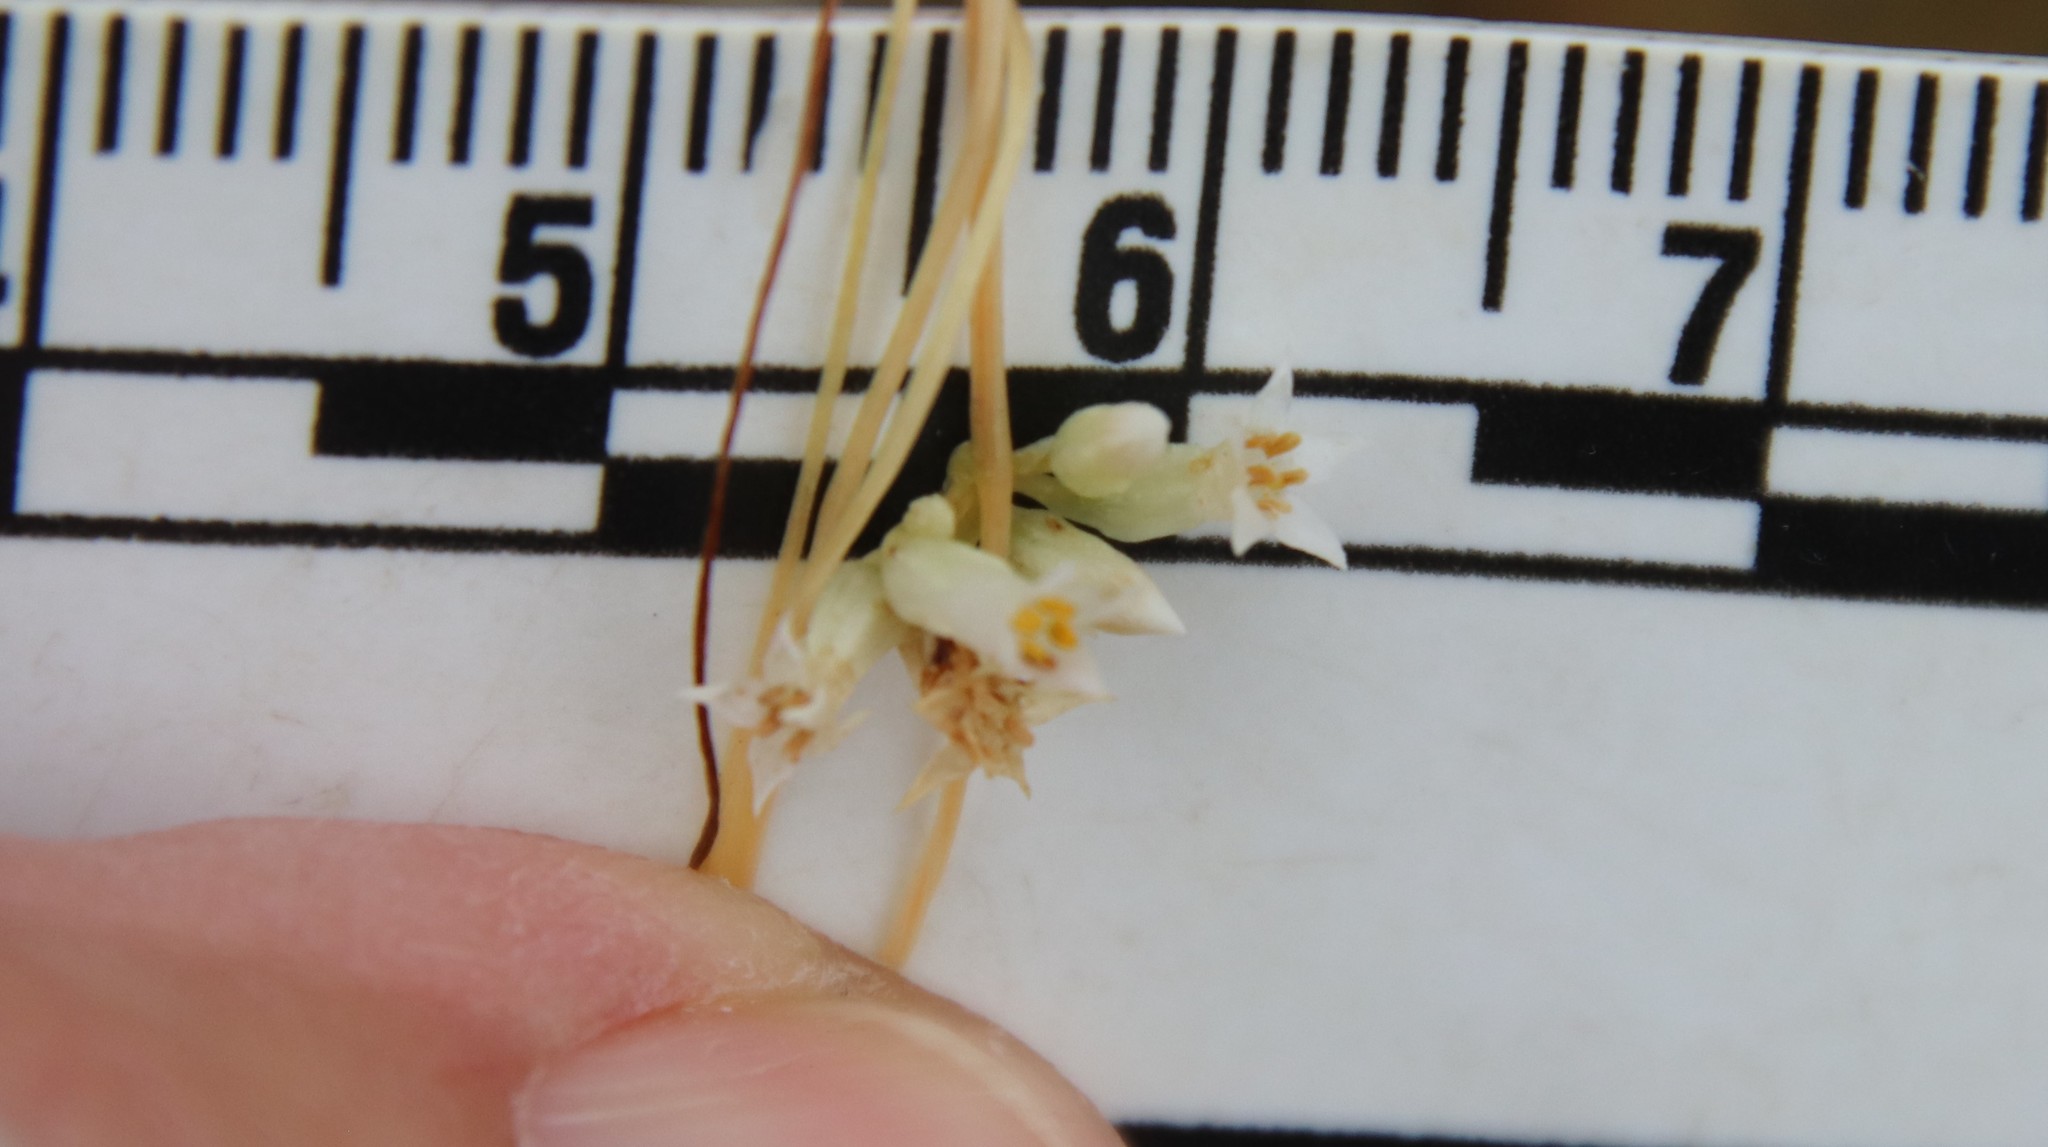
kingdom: Plantae
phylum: Tracheophyta
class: Magnoliopsida
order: Solanales
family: Convolvulaceae
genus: Cuscuta
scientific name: Cuscuta subinclusa
